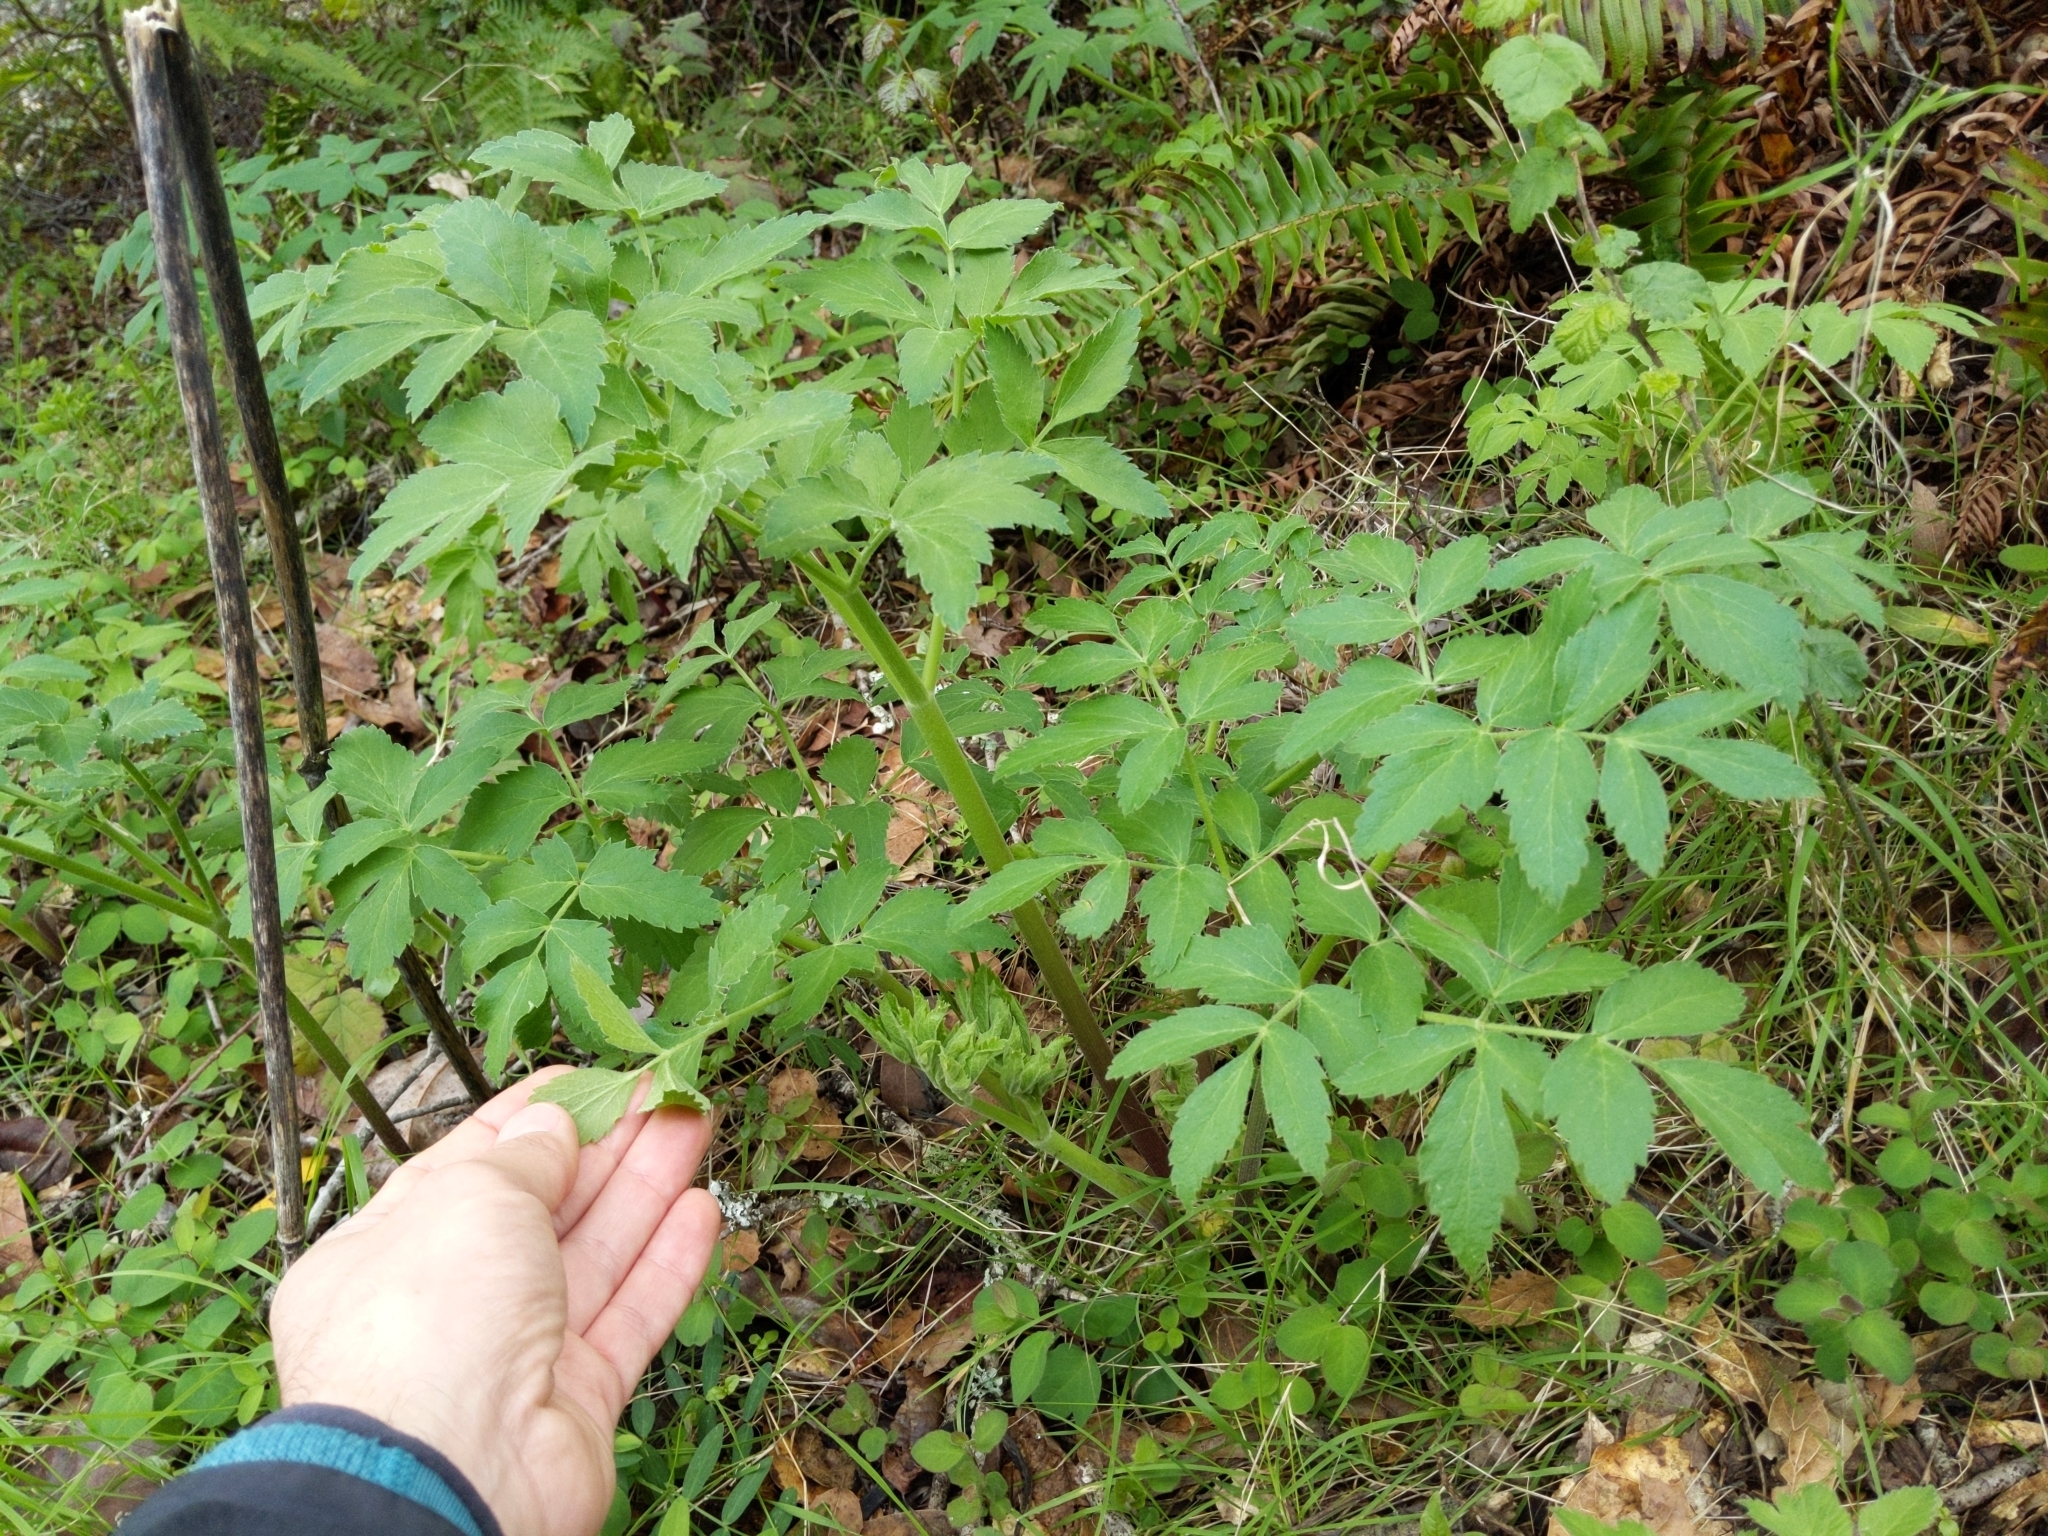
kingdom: Plantae
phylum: Tracheophyta
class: Magnoliopsida
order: Apiales
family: Apiaceae
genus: Angelica
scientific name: Angelica californica
